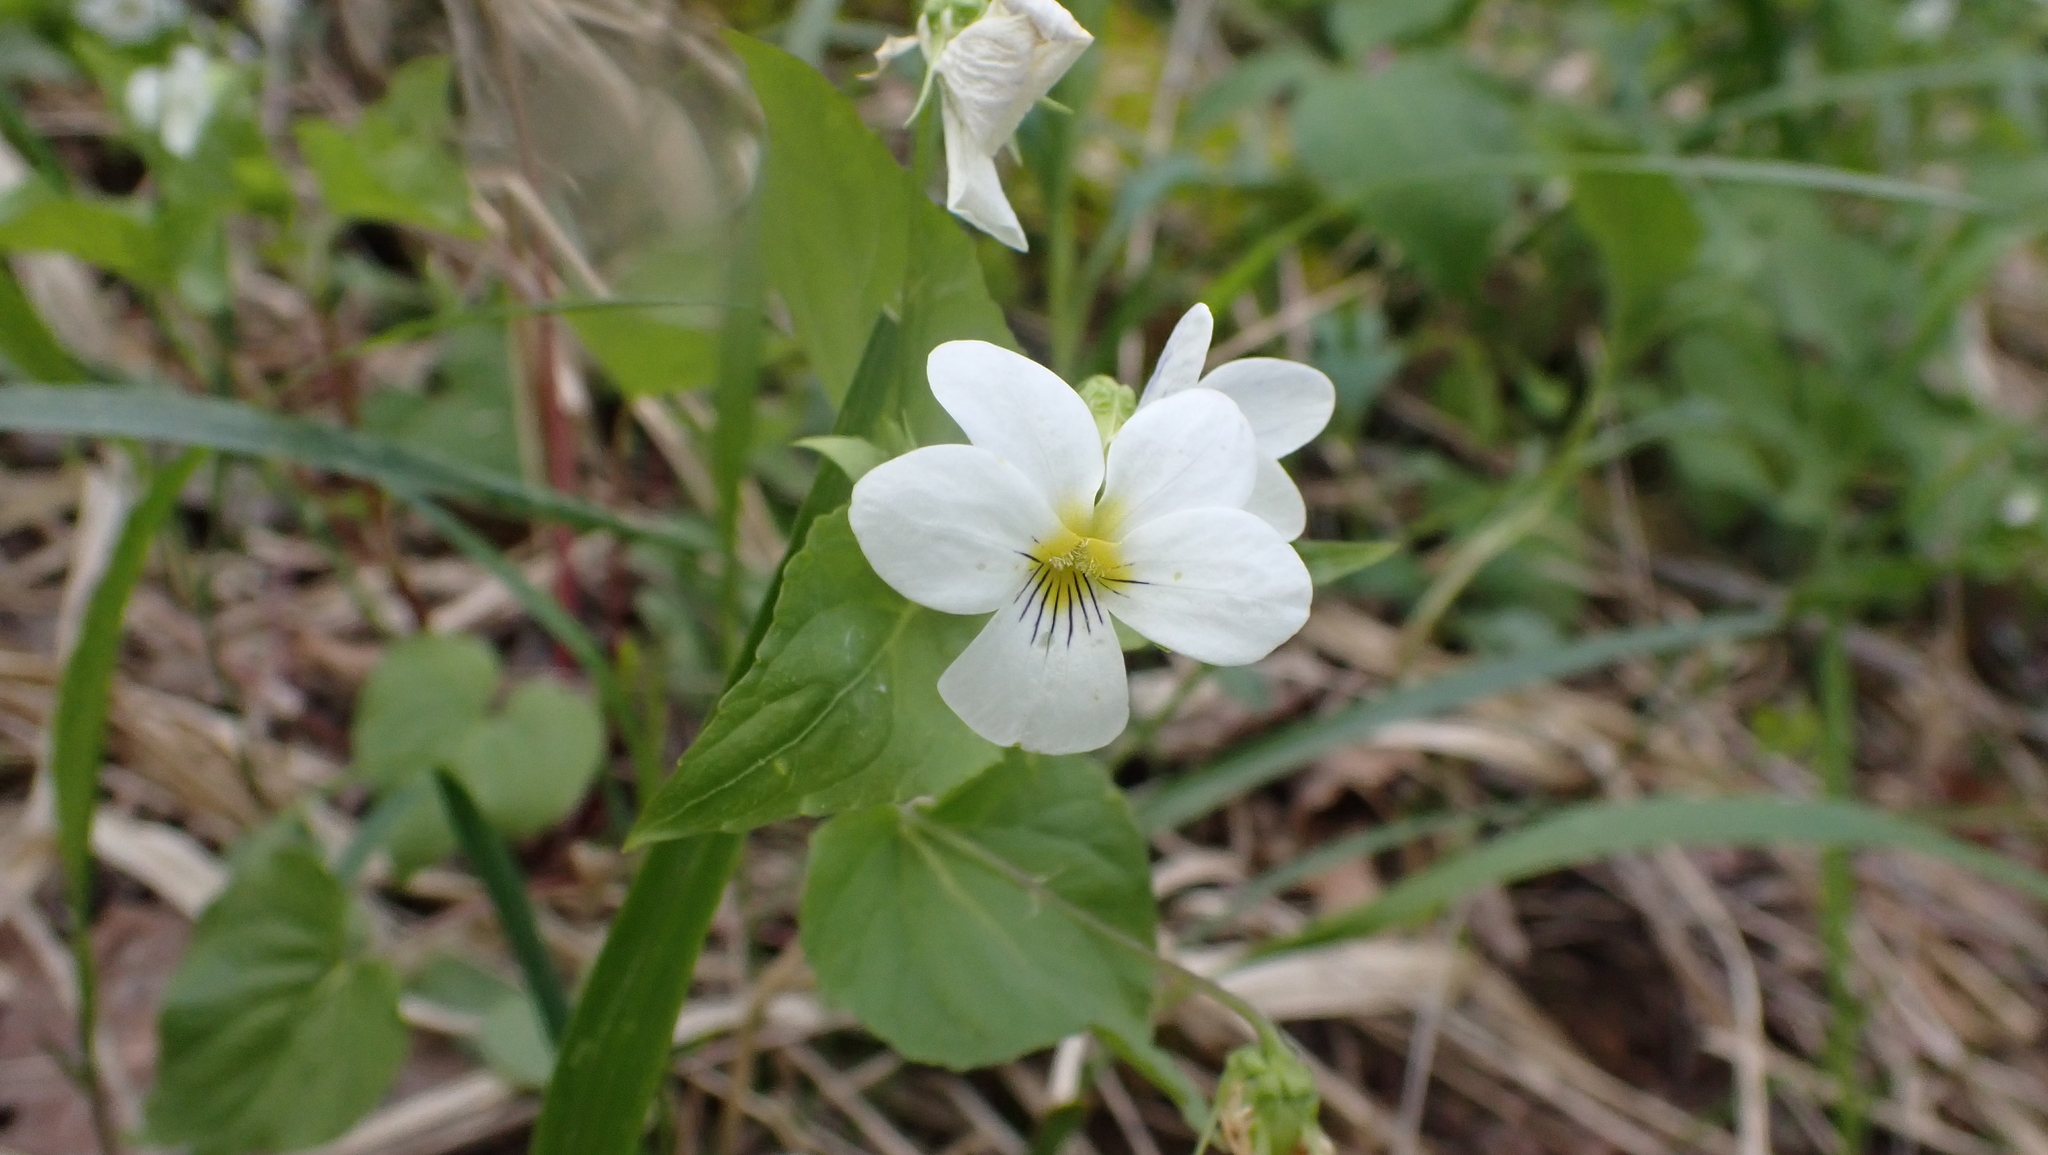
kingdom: Plantae
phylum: Tracheophyta
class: Magnoliopsida
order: Malpighiales
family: Violaceae
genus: Viola
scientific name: Viola canadensis
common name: Canada violet
